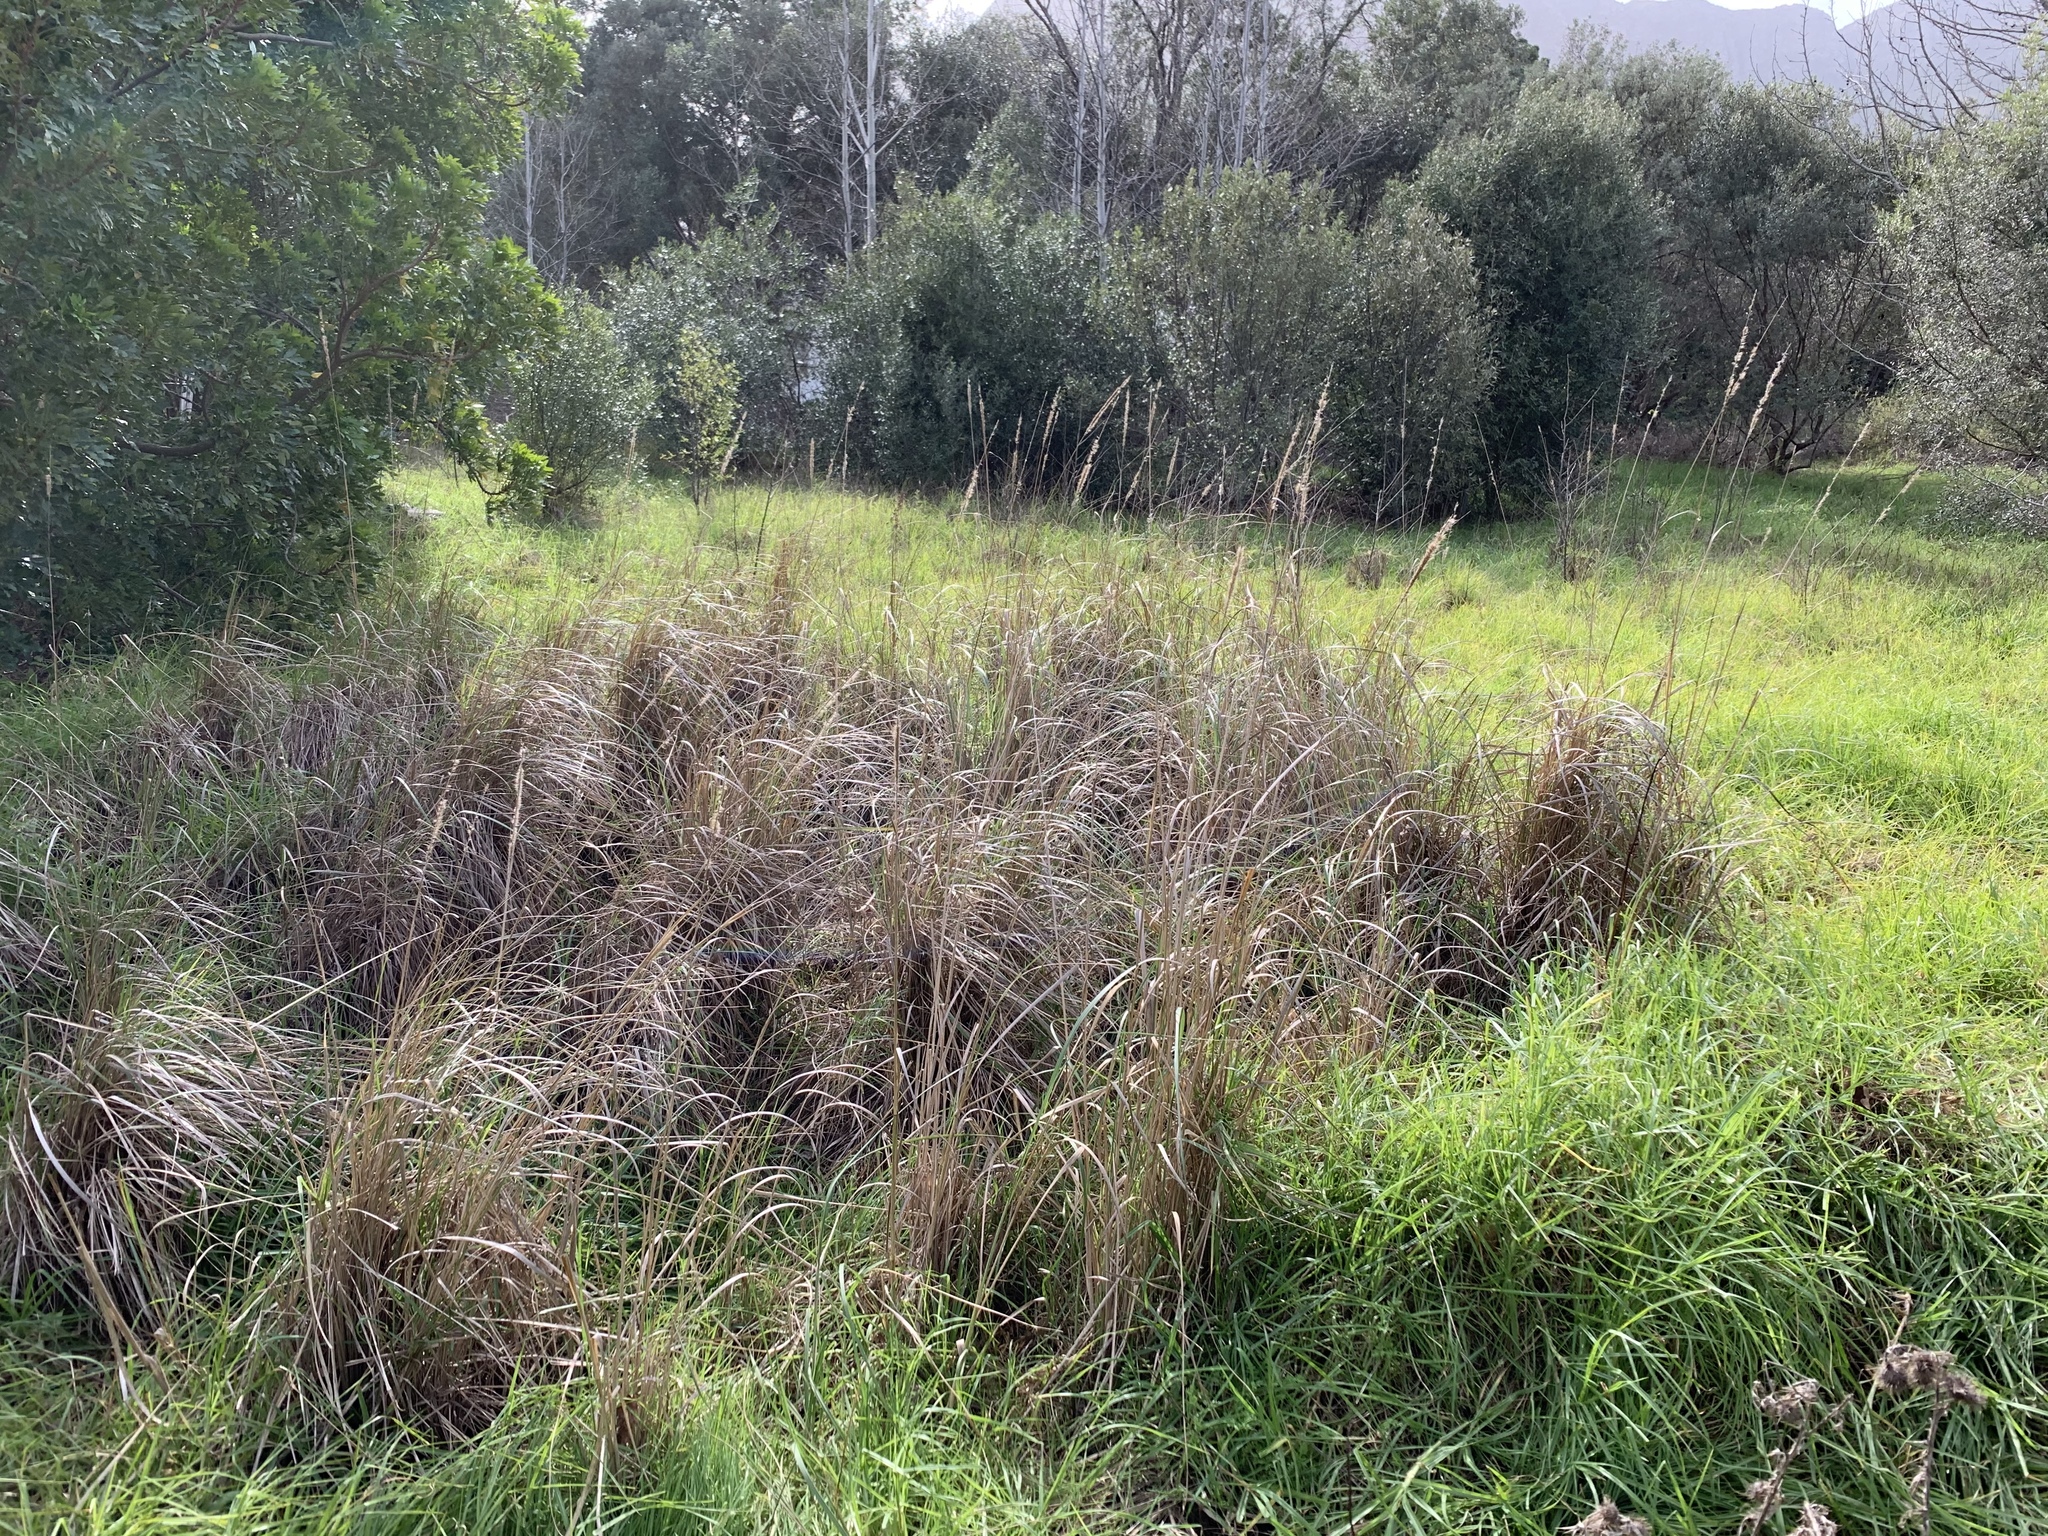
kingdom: Plantae
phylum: Tracheophyta
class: Liliopsida
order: Poales
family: Poaceae
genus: Cenchrus
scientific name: Cenchrus caudatus
